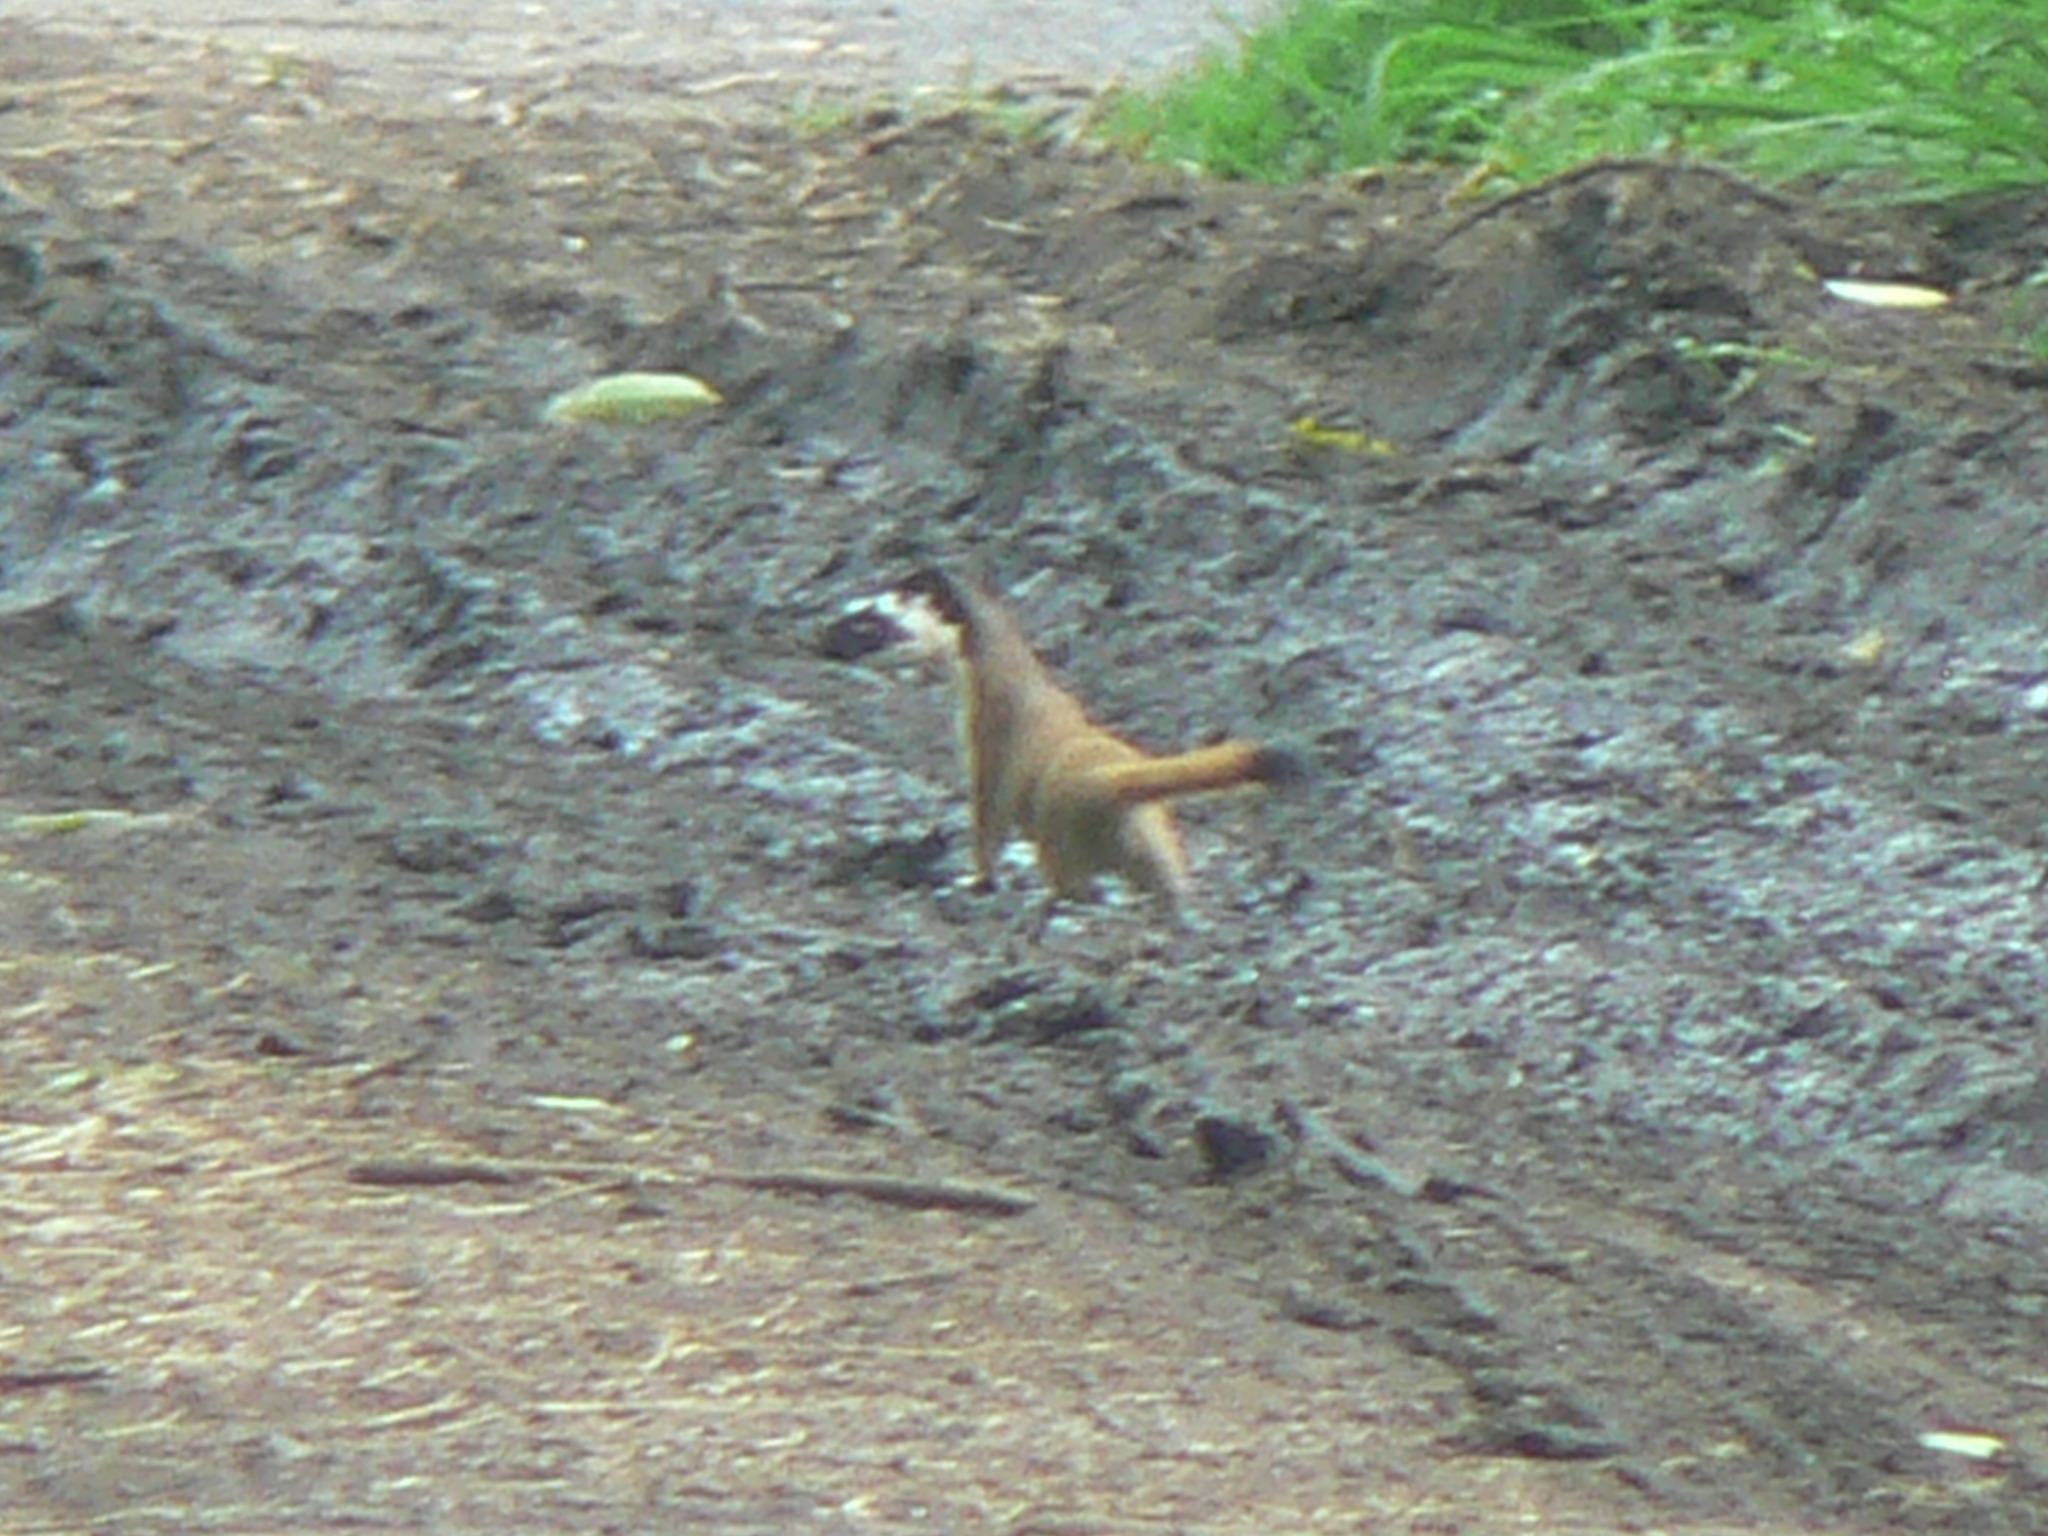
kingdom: Animalia
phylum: Chordata
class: Mammalia
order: Carnivora
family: Mustelidae
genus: Mustela
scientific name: Mustela
